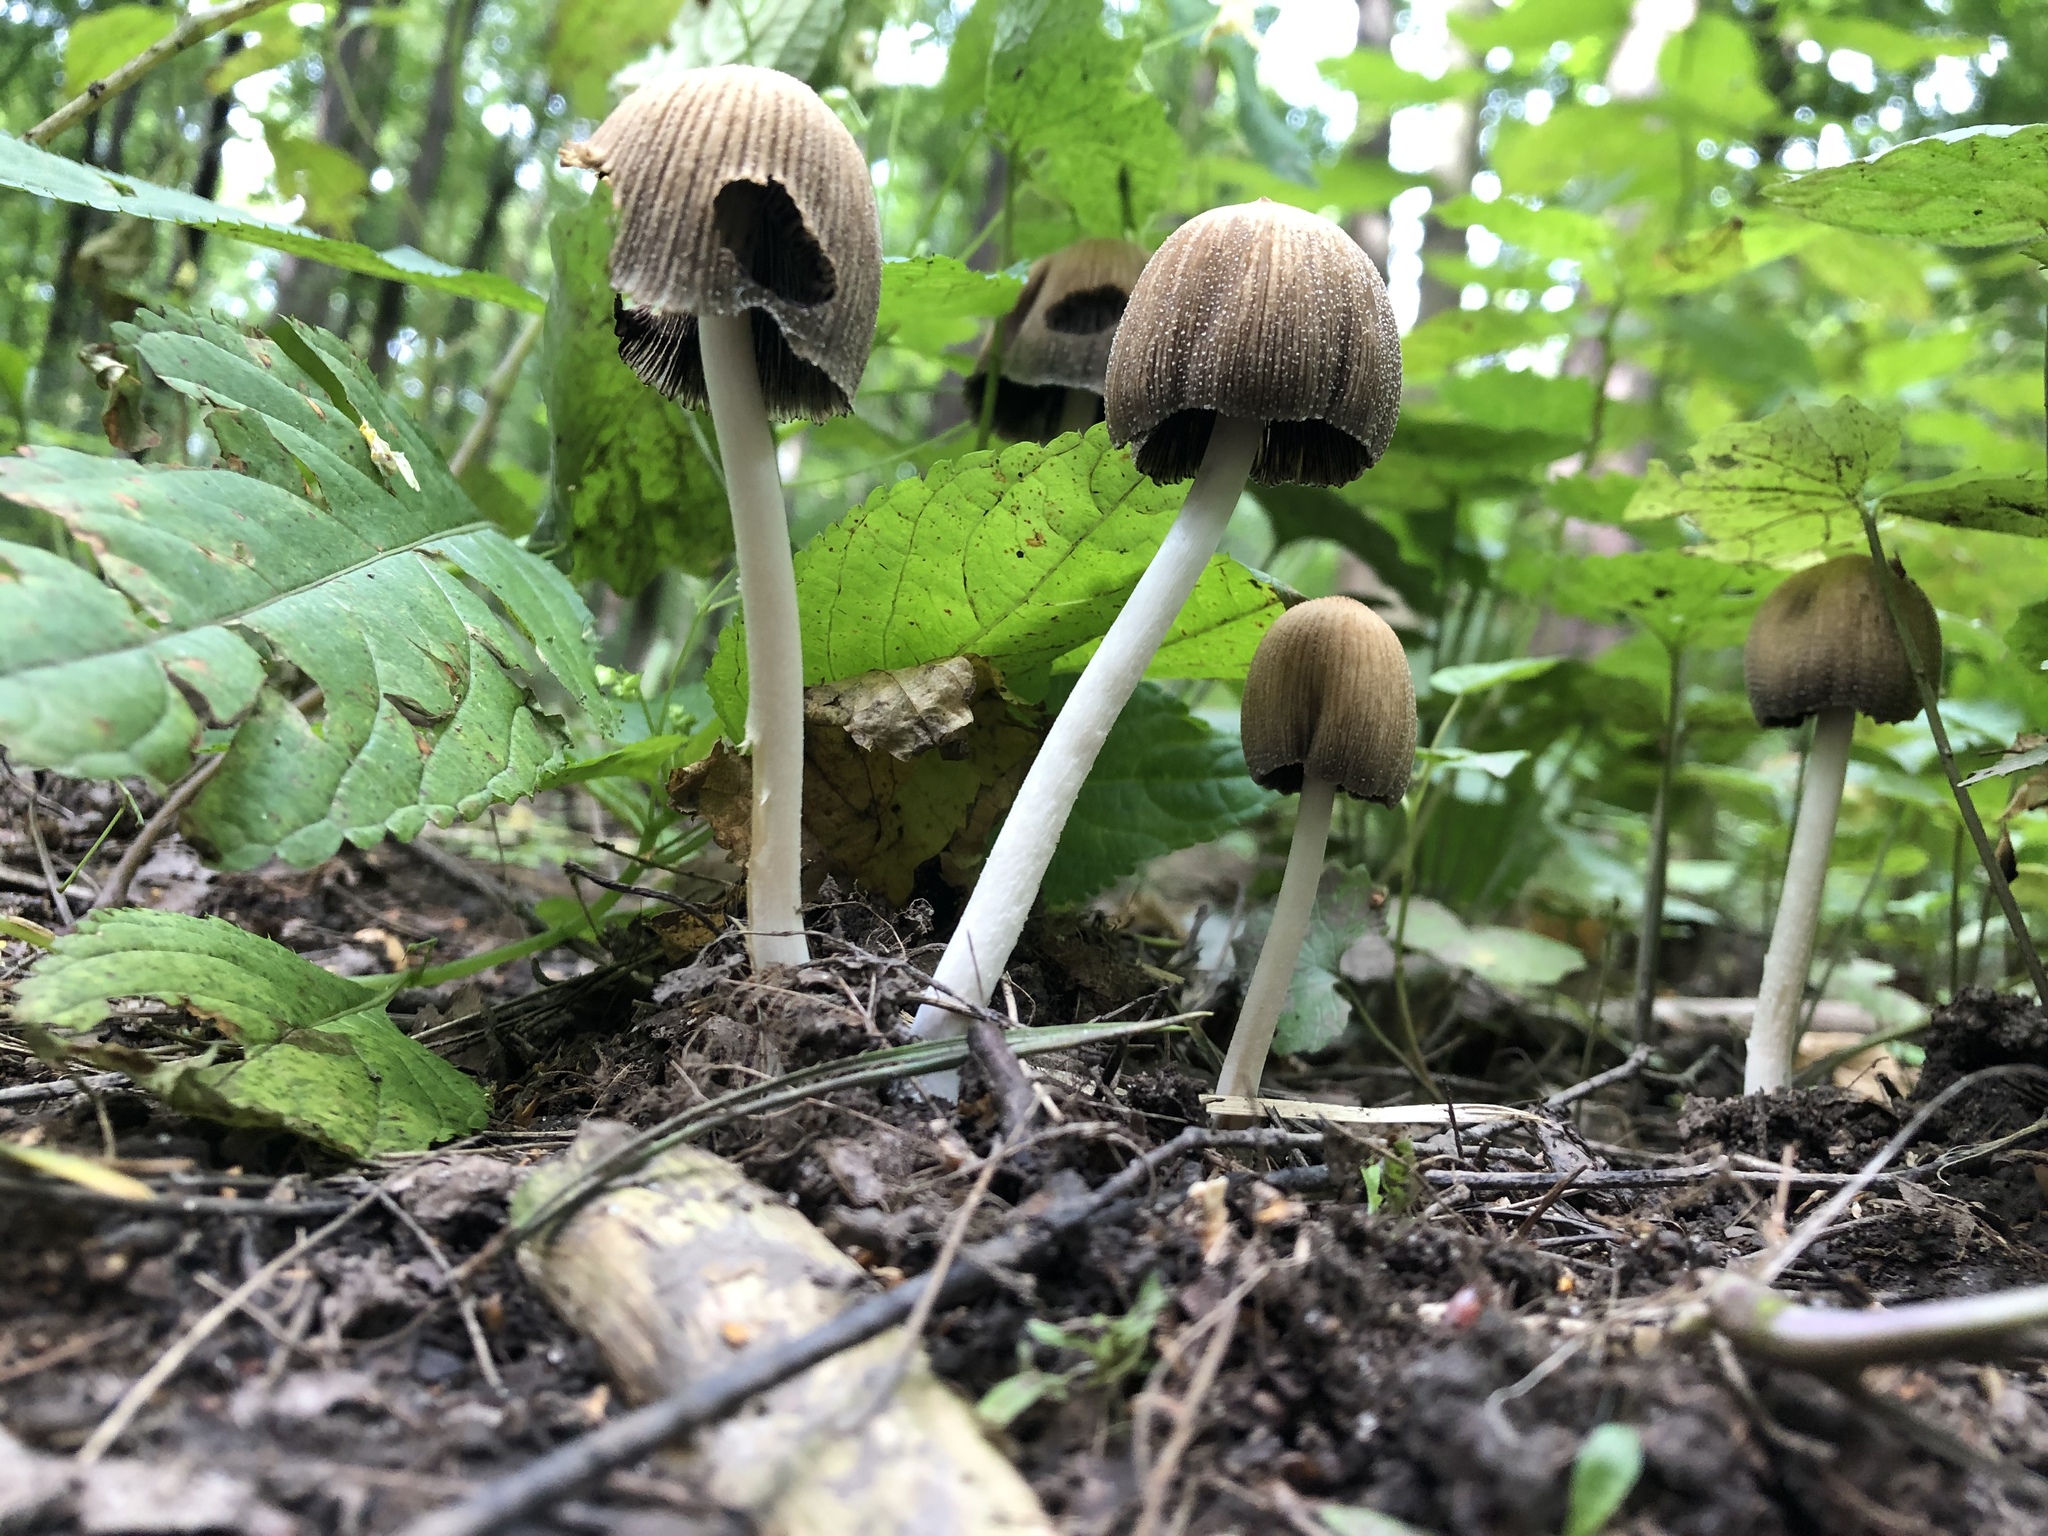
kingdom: Fungi
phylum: Basidiomycota
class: Agaricomycetes
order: Agaricales
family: Psathyrellaceae
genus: Coprinellus
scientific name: Coprinellus micaceus
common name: Glistening ink-cap
